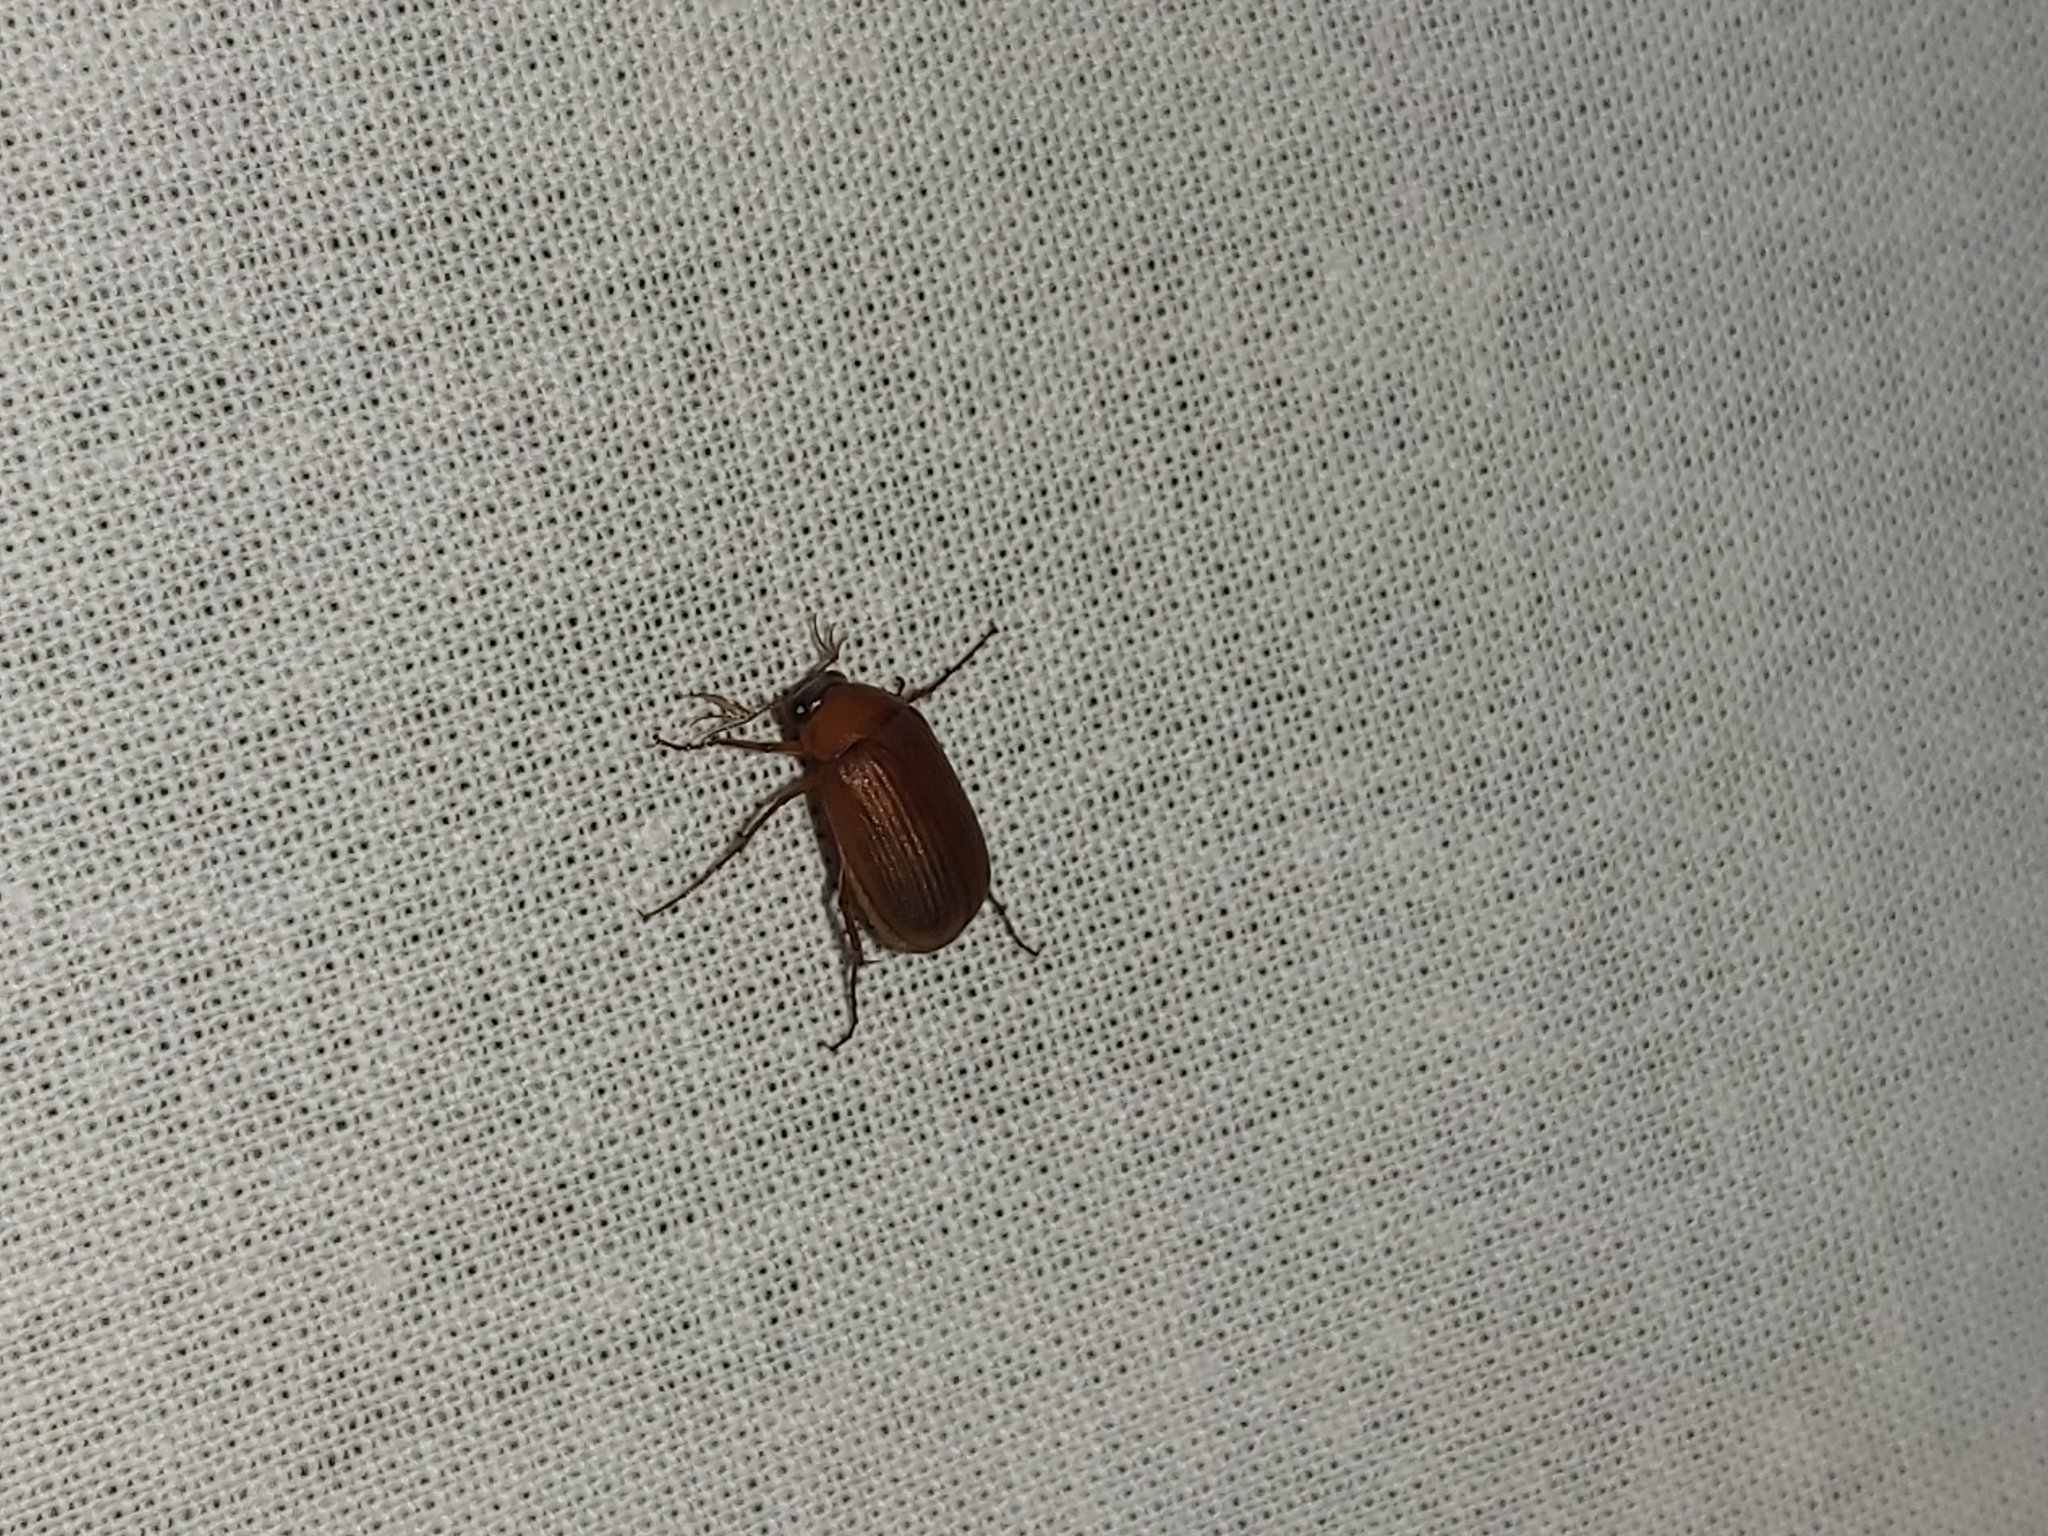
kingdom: Animalia
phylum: Arthropoda
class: Insecta
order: Coleoptera
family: Scarabaeidae
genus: Serica
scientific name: Serica brunnea
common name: Brown chafer
